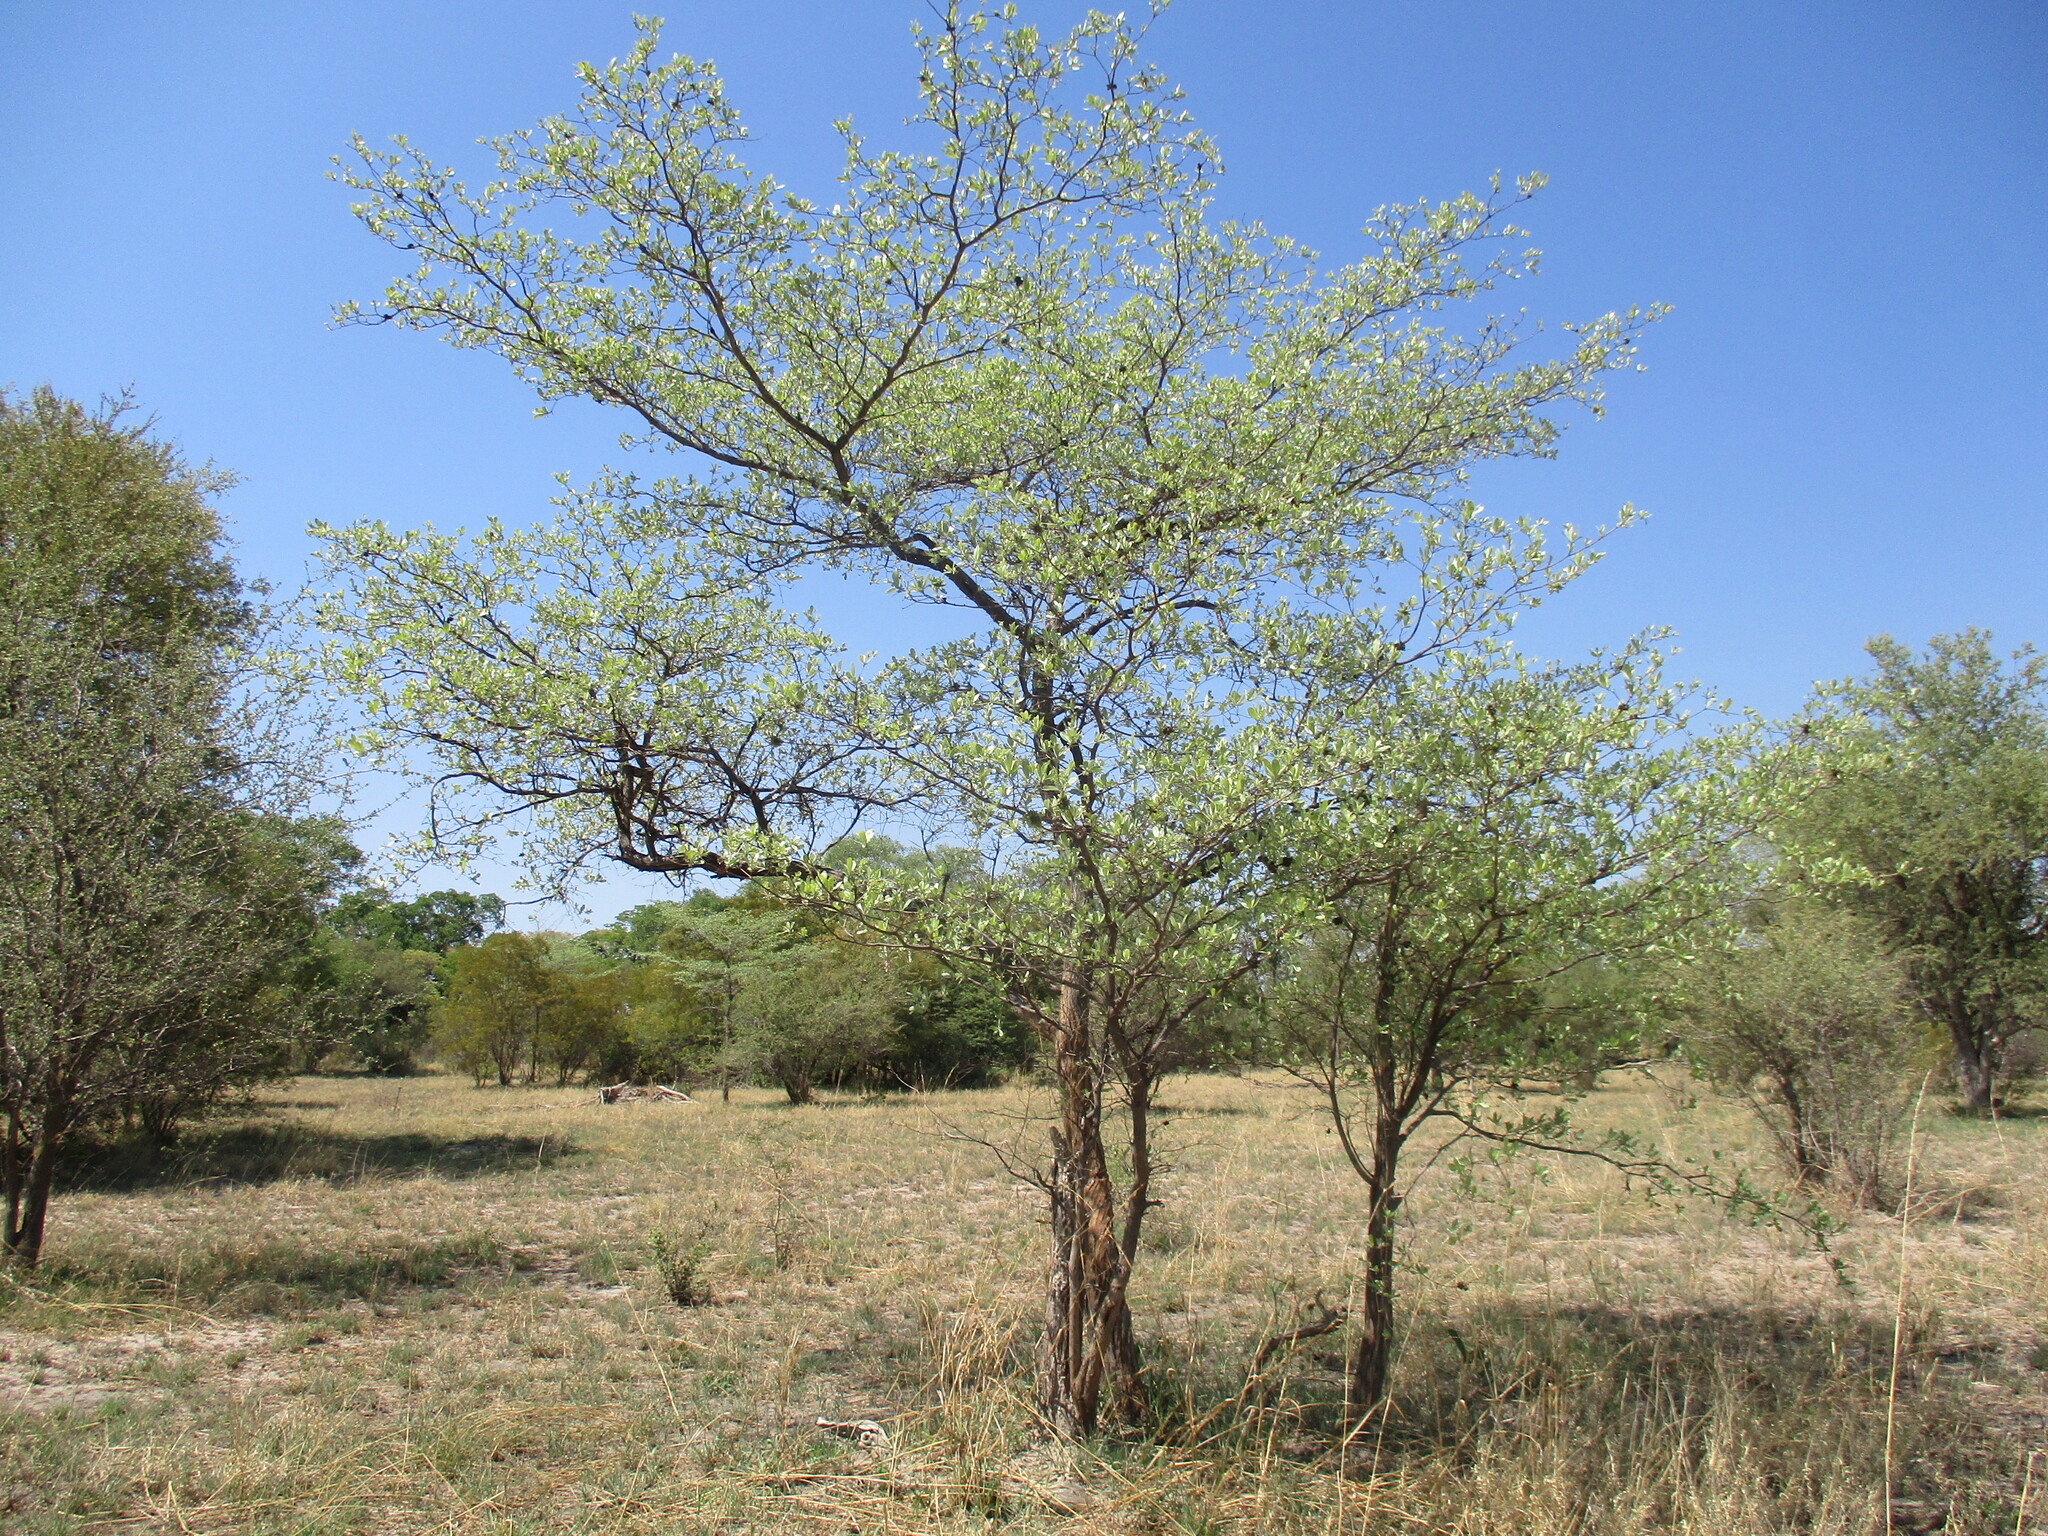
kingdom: Plantae
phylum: Tracheophyta
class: Magnoliopsida
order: Myrtales
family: Combretaceae
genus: Terminalia
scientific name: Terminalia sericea
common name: Clusterleaf
